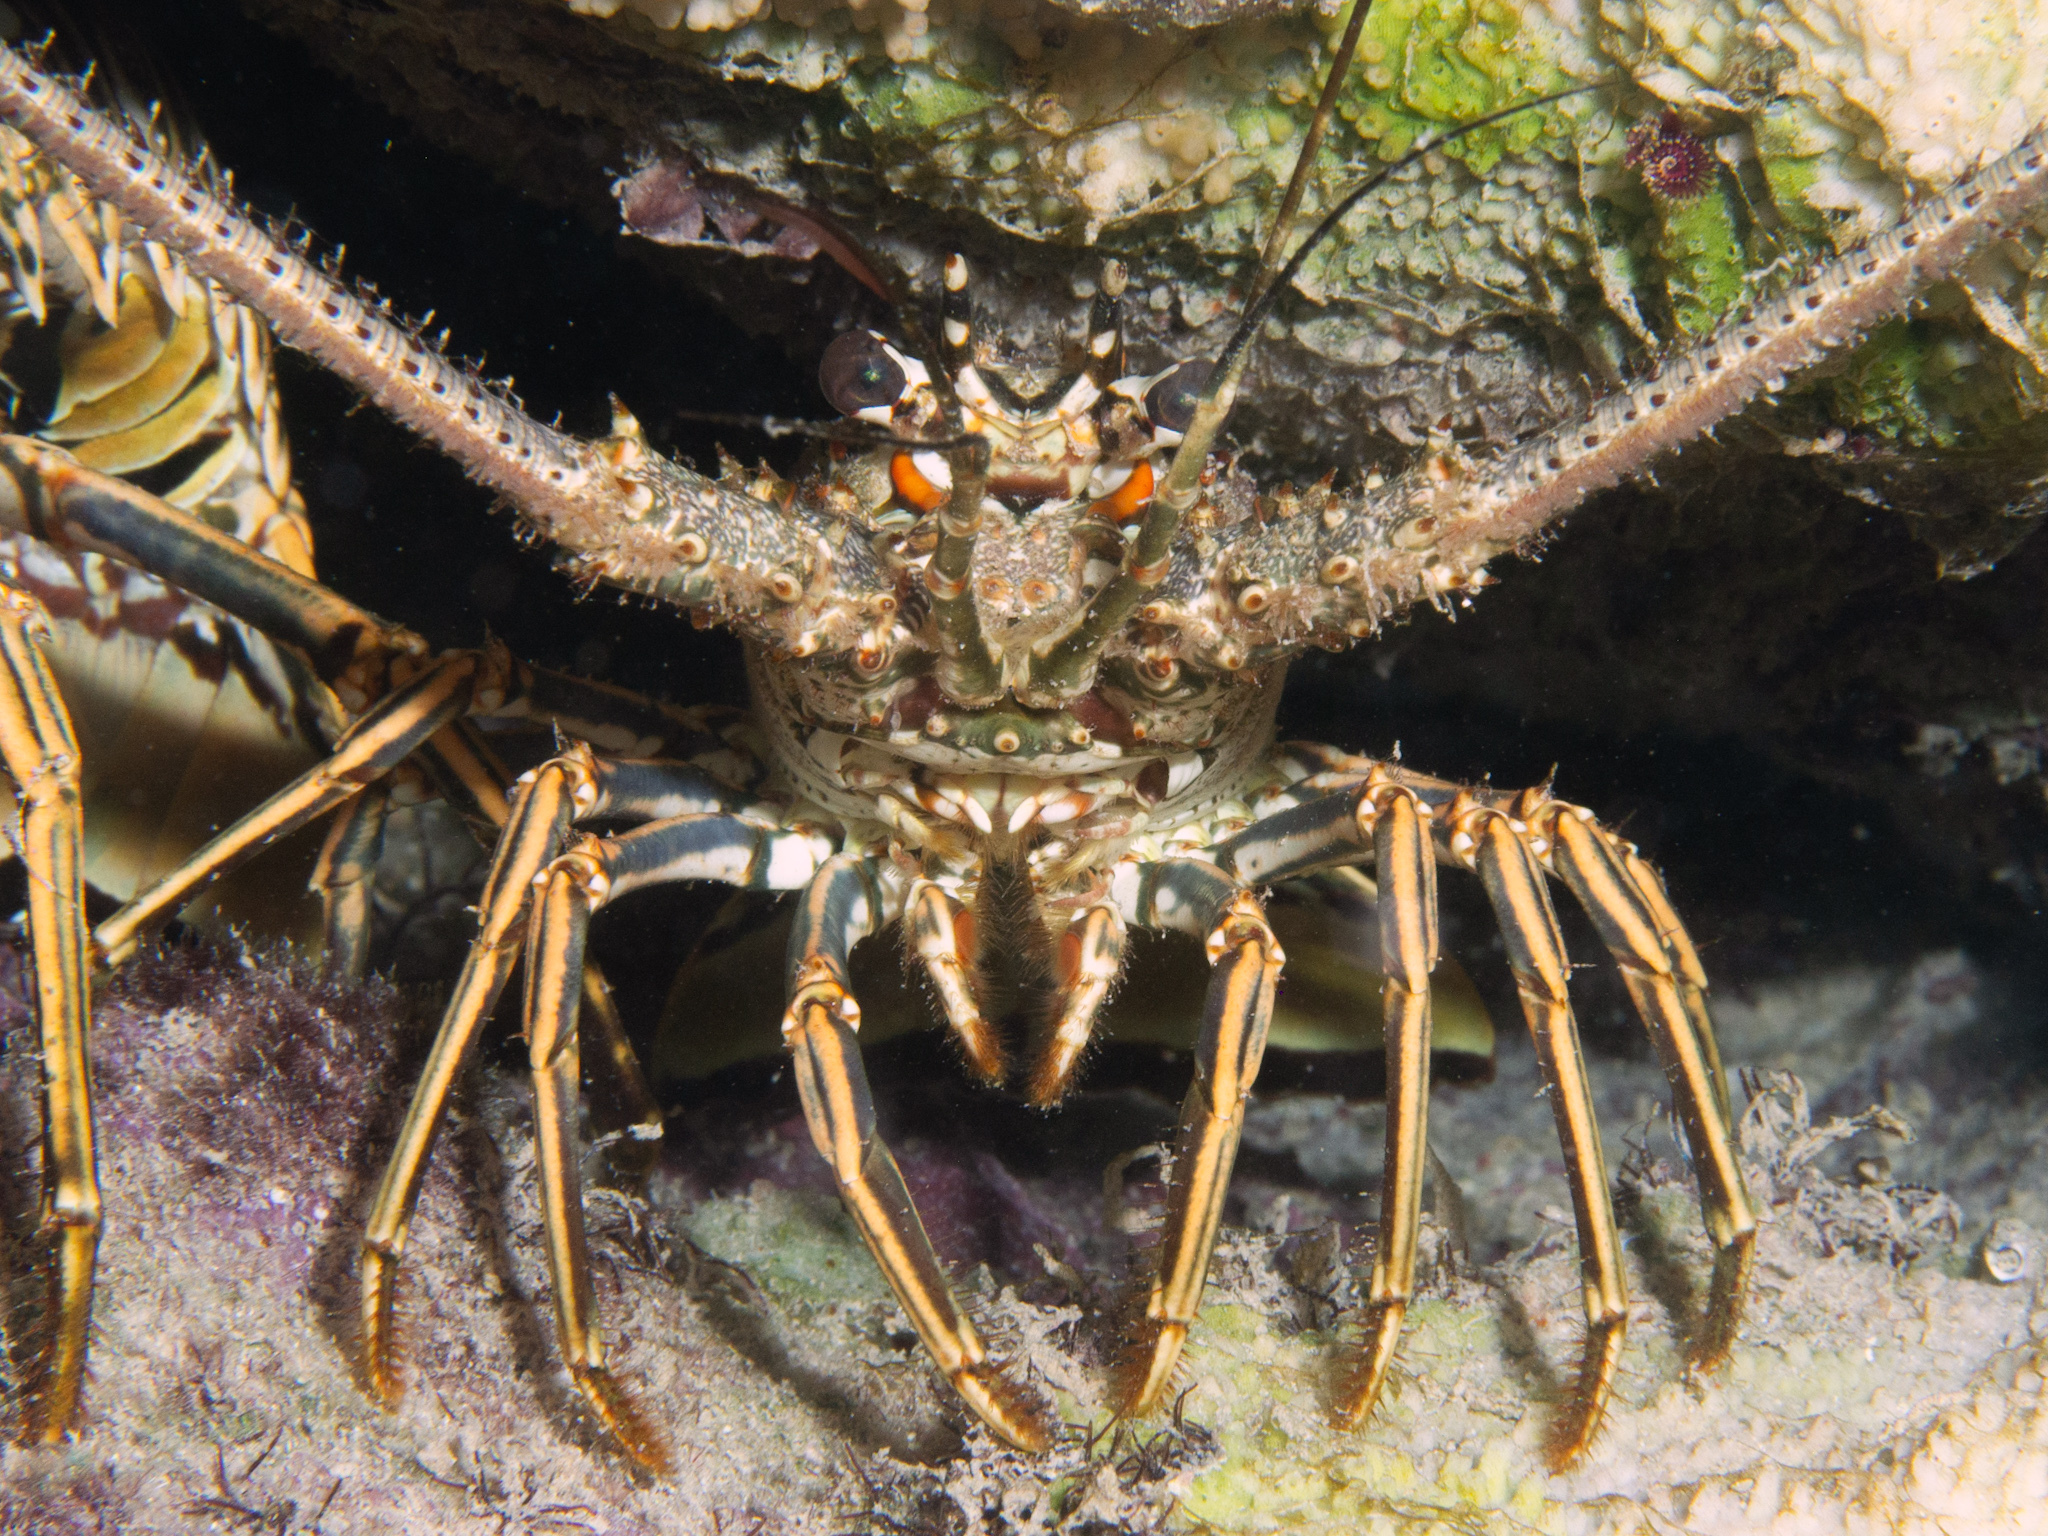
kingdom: Animalia
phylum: Arthropoda
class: Malacostraca
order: Decapoda
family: Palinuridae
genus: Panulirus
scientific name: Panulirus argus
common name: Caribbean spiny lobster
